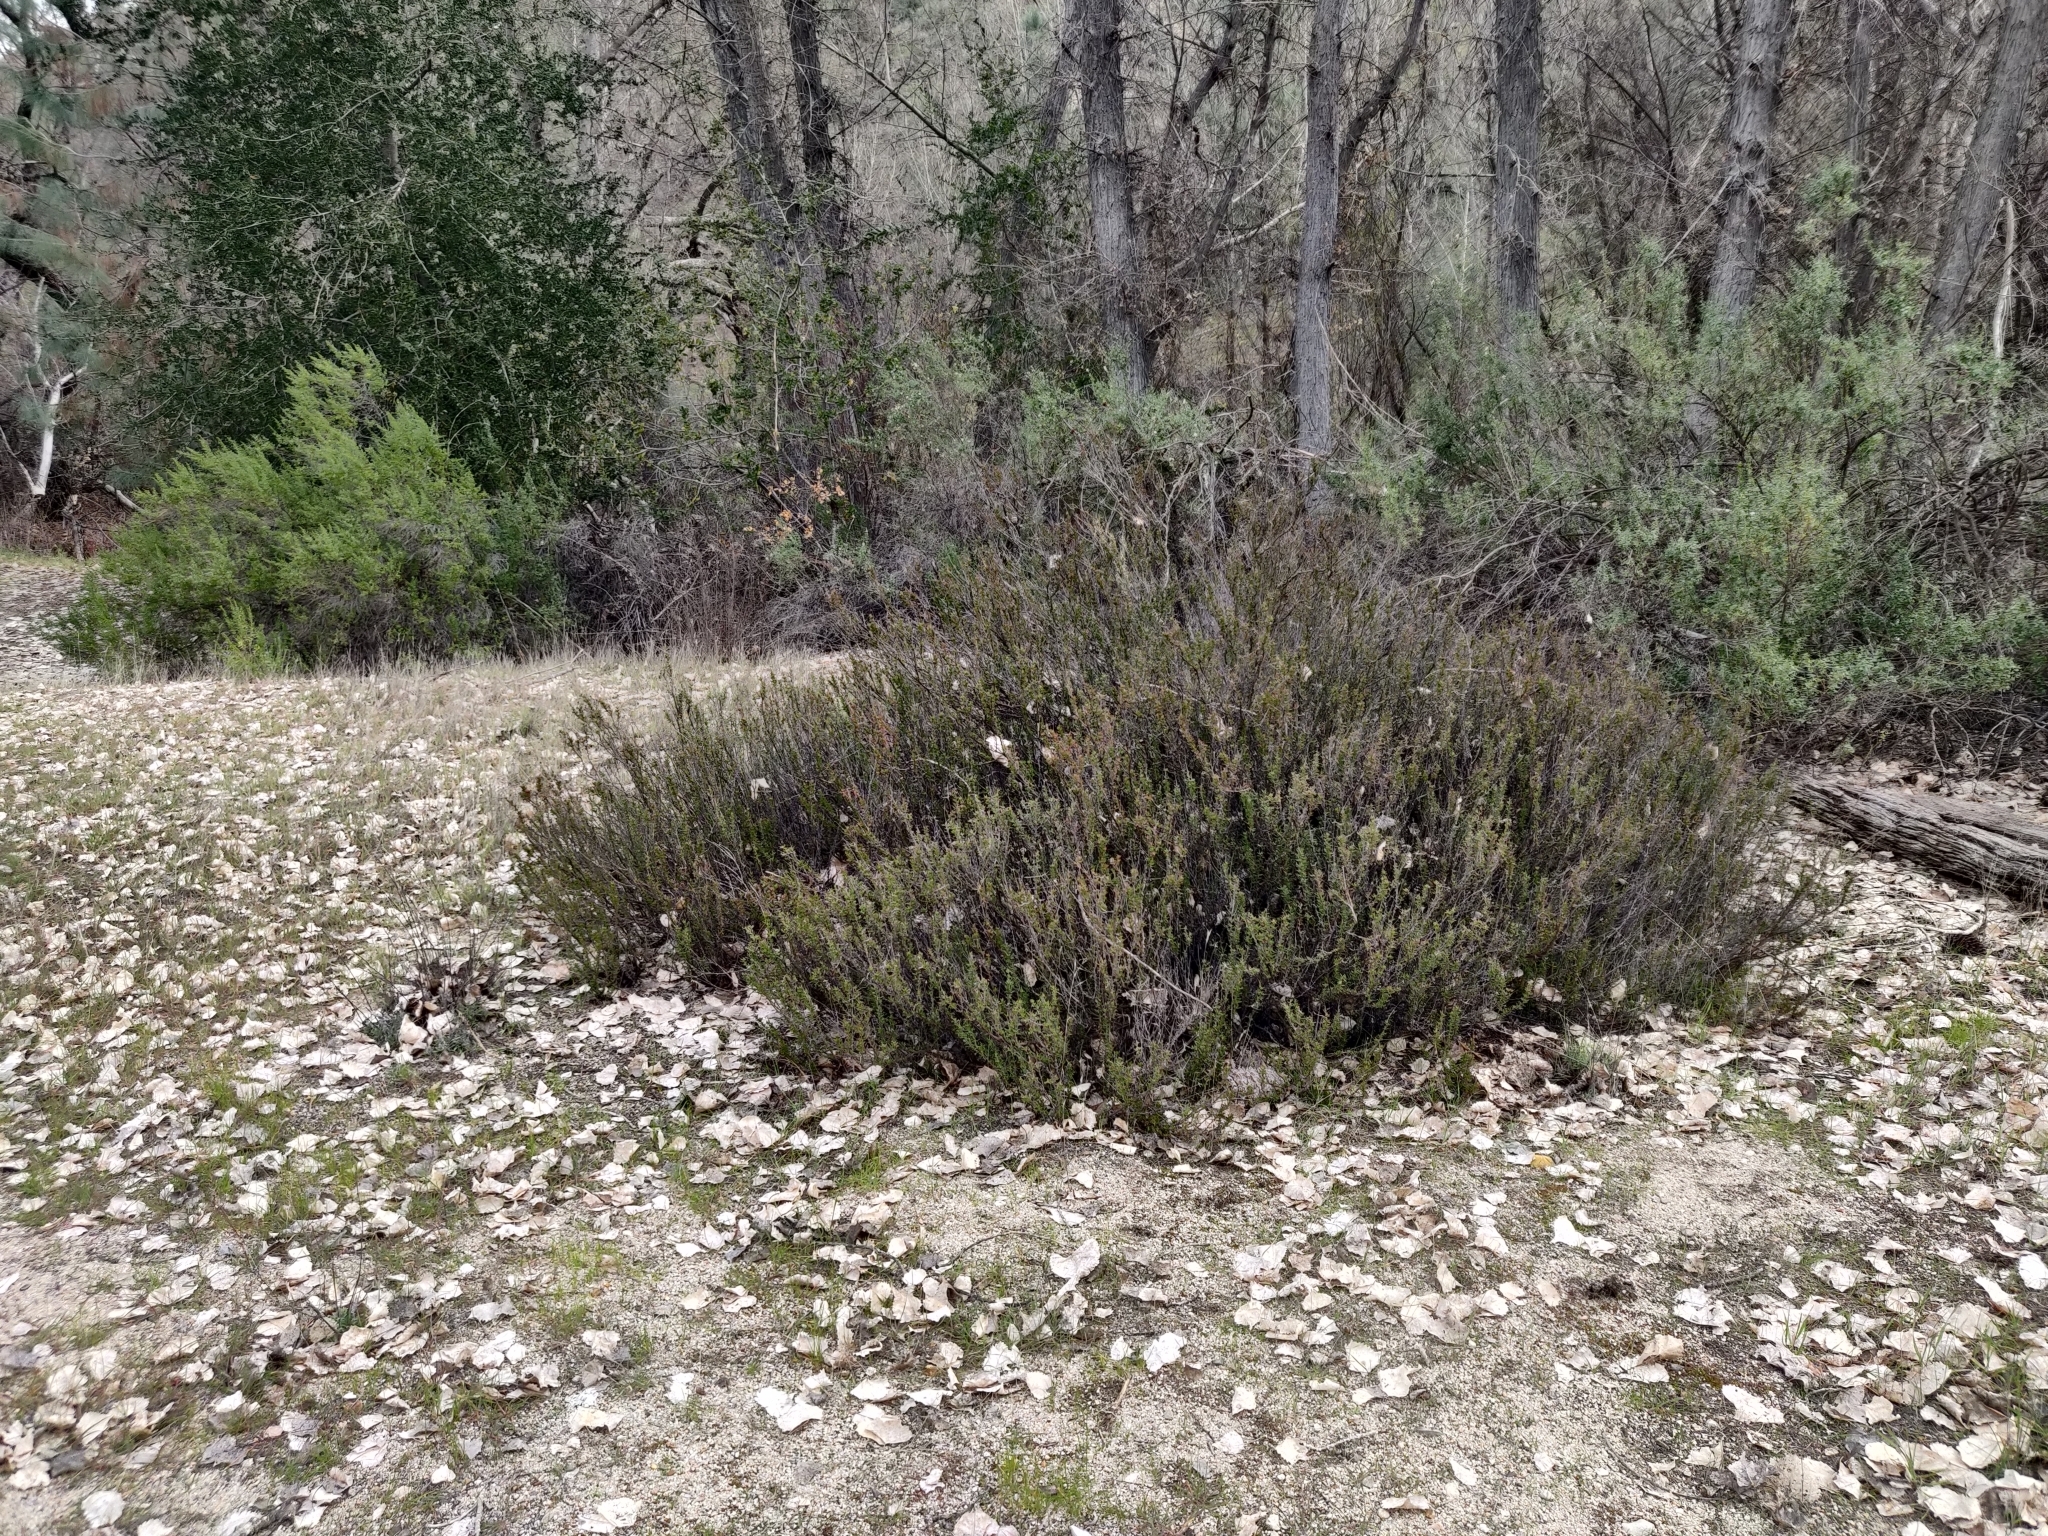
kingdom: Plantae
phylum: Tracheophyta
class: Magnoliopsida
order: Caryophyllales
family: Polygonaceae
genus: Eriogonum
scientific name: Eriogonum fasciculatum
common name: California wild buckwheat
